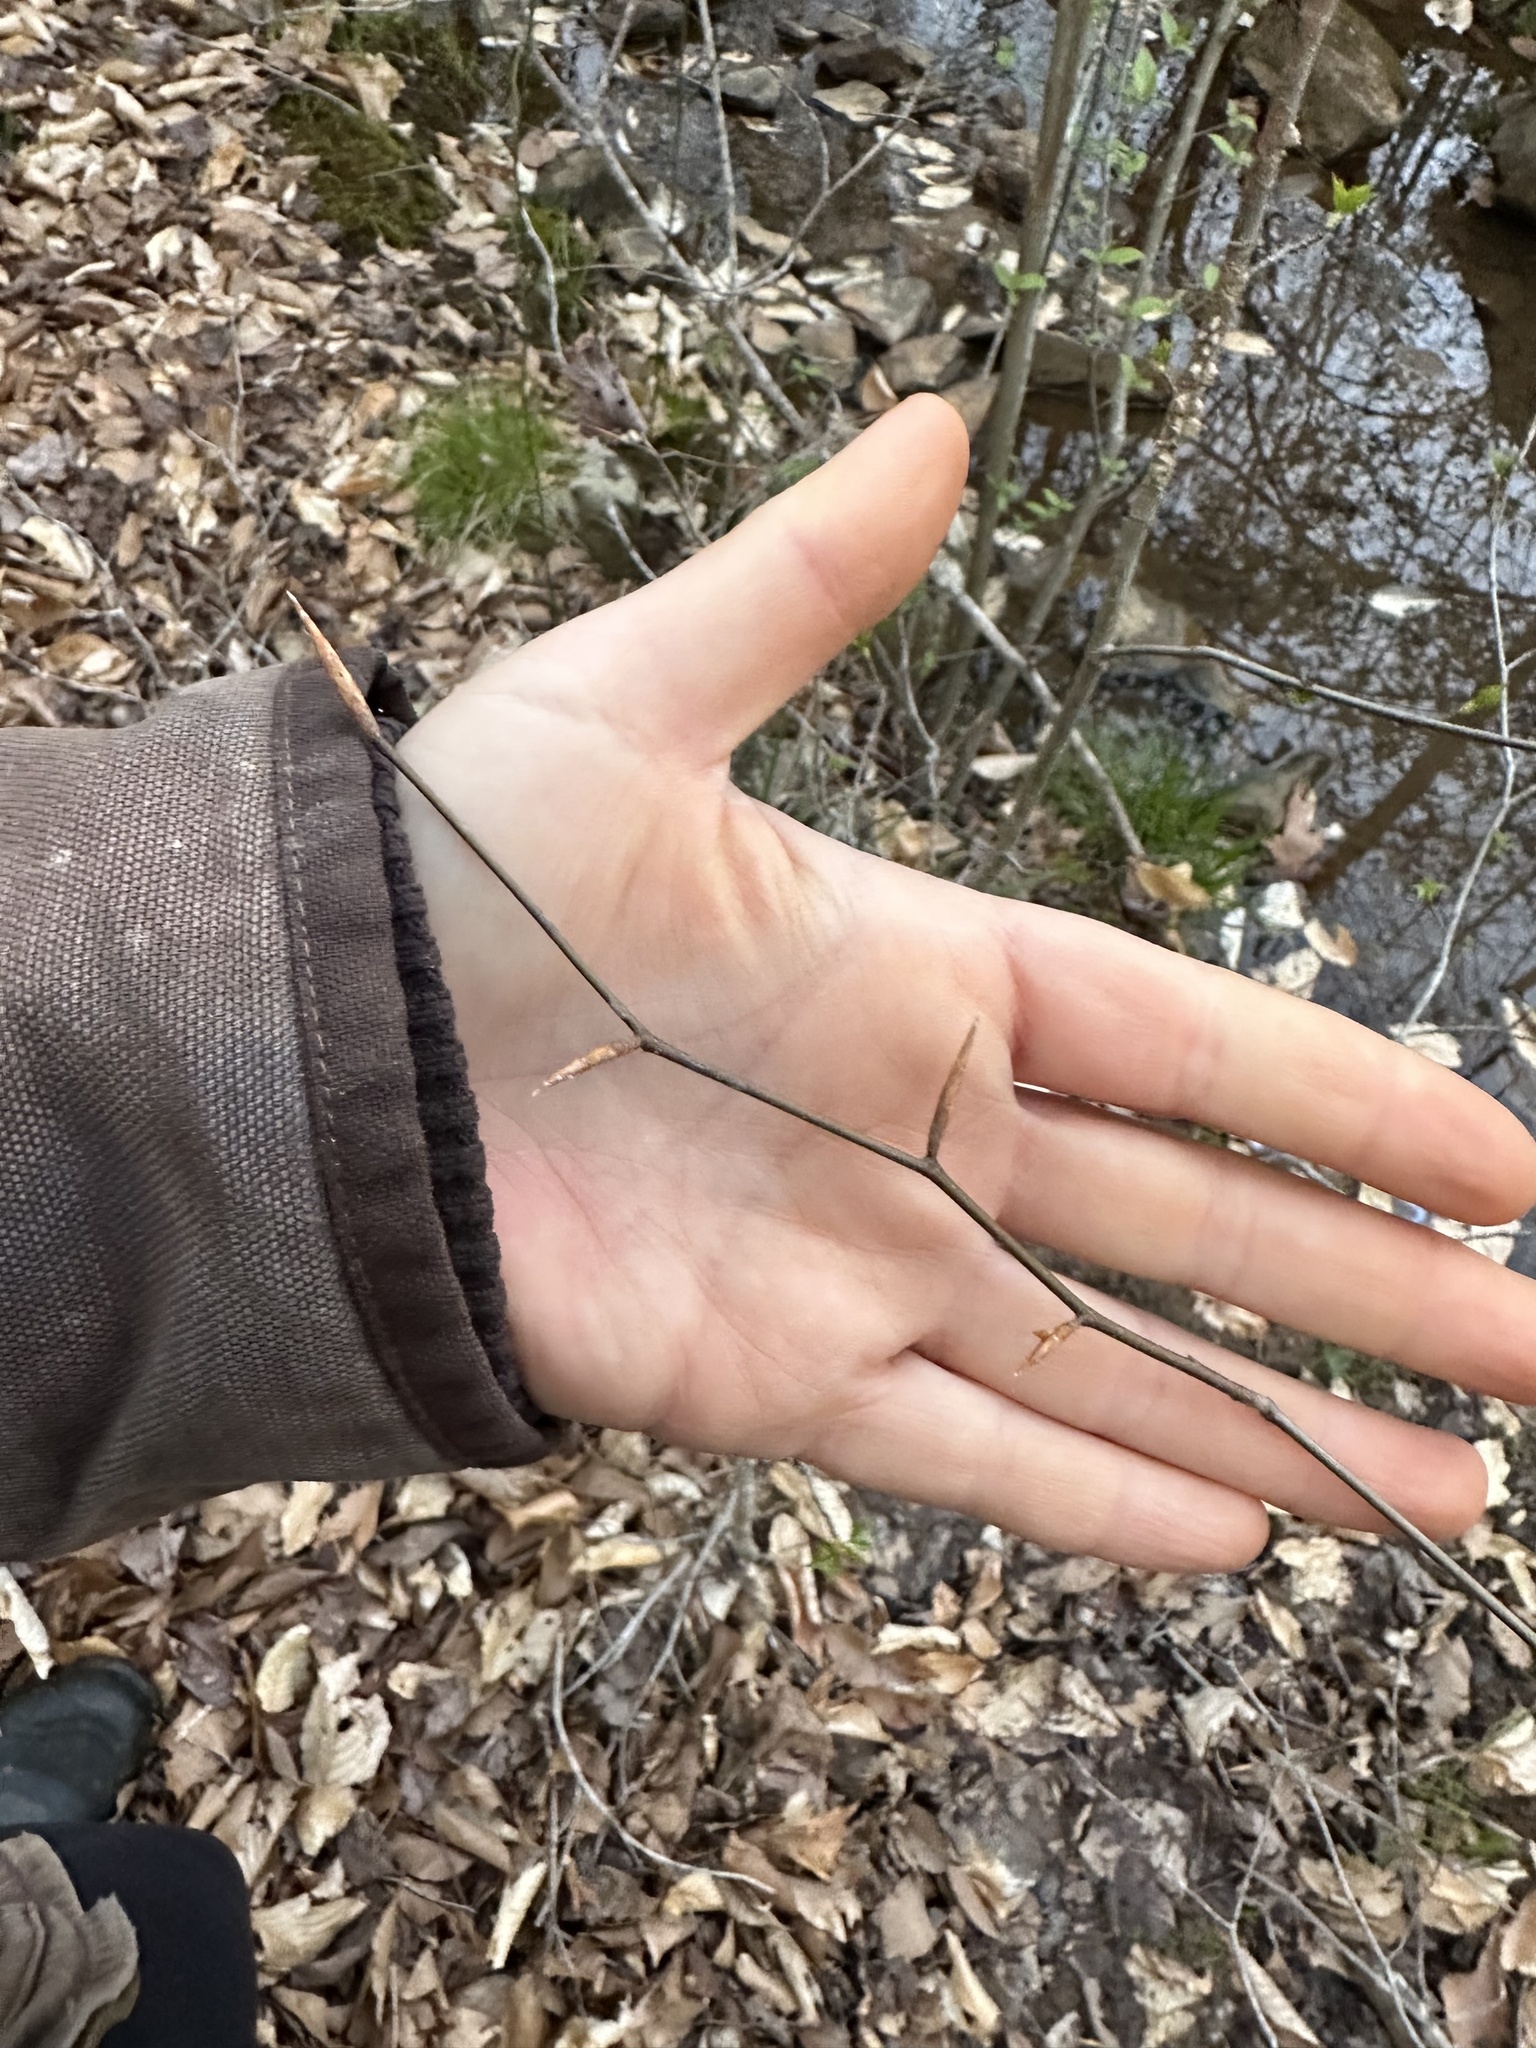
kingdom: Plantae
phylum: Tracheophyta
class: Magnoliopsida
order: Fagales
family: Fagaceae
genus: Fagus
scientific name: Fagus grandifolia
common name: American beech
